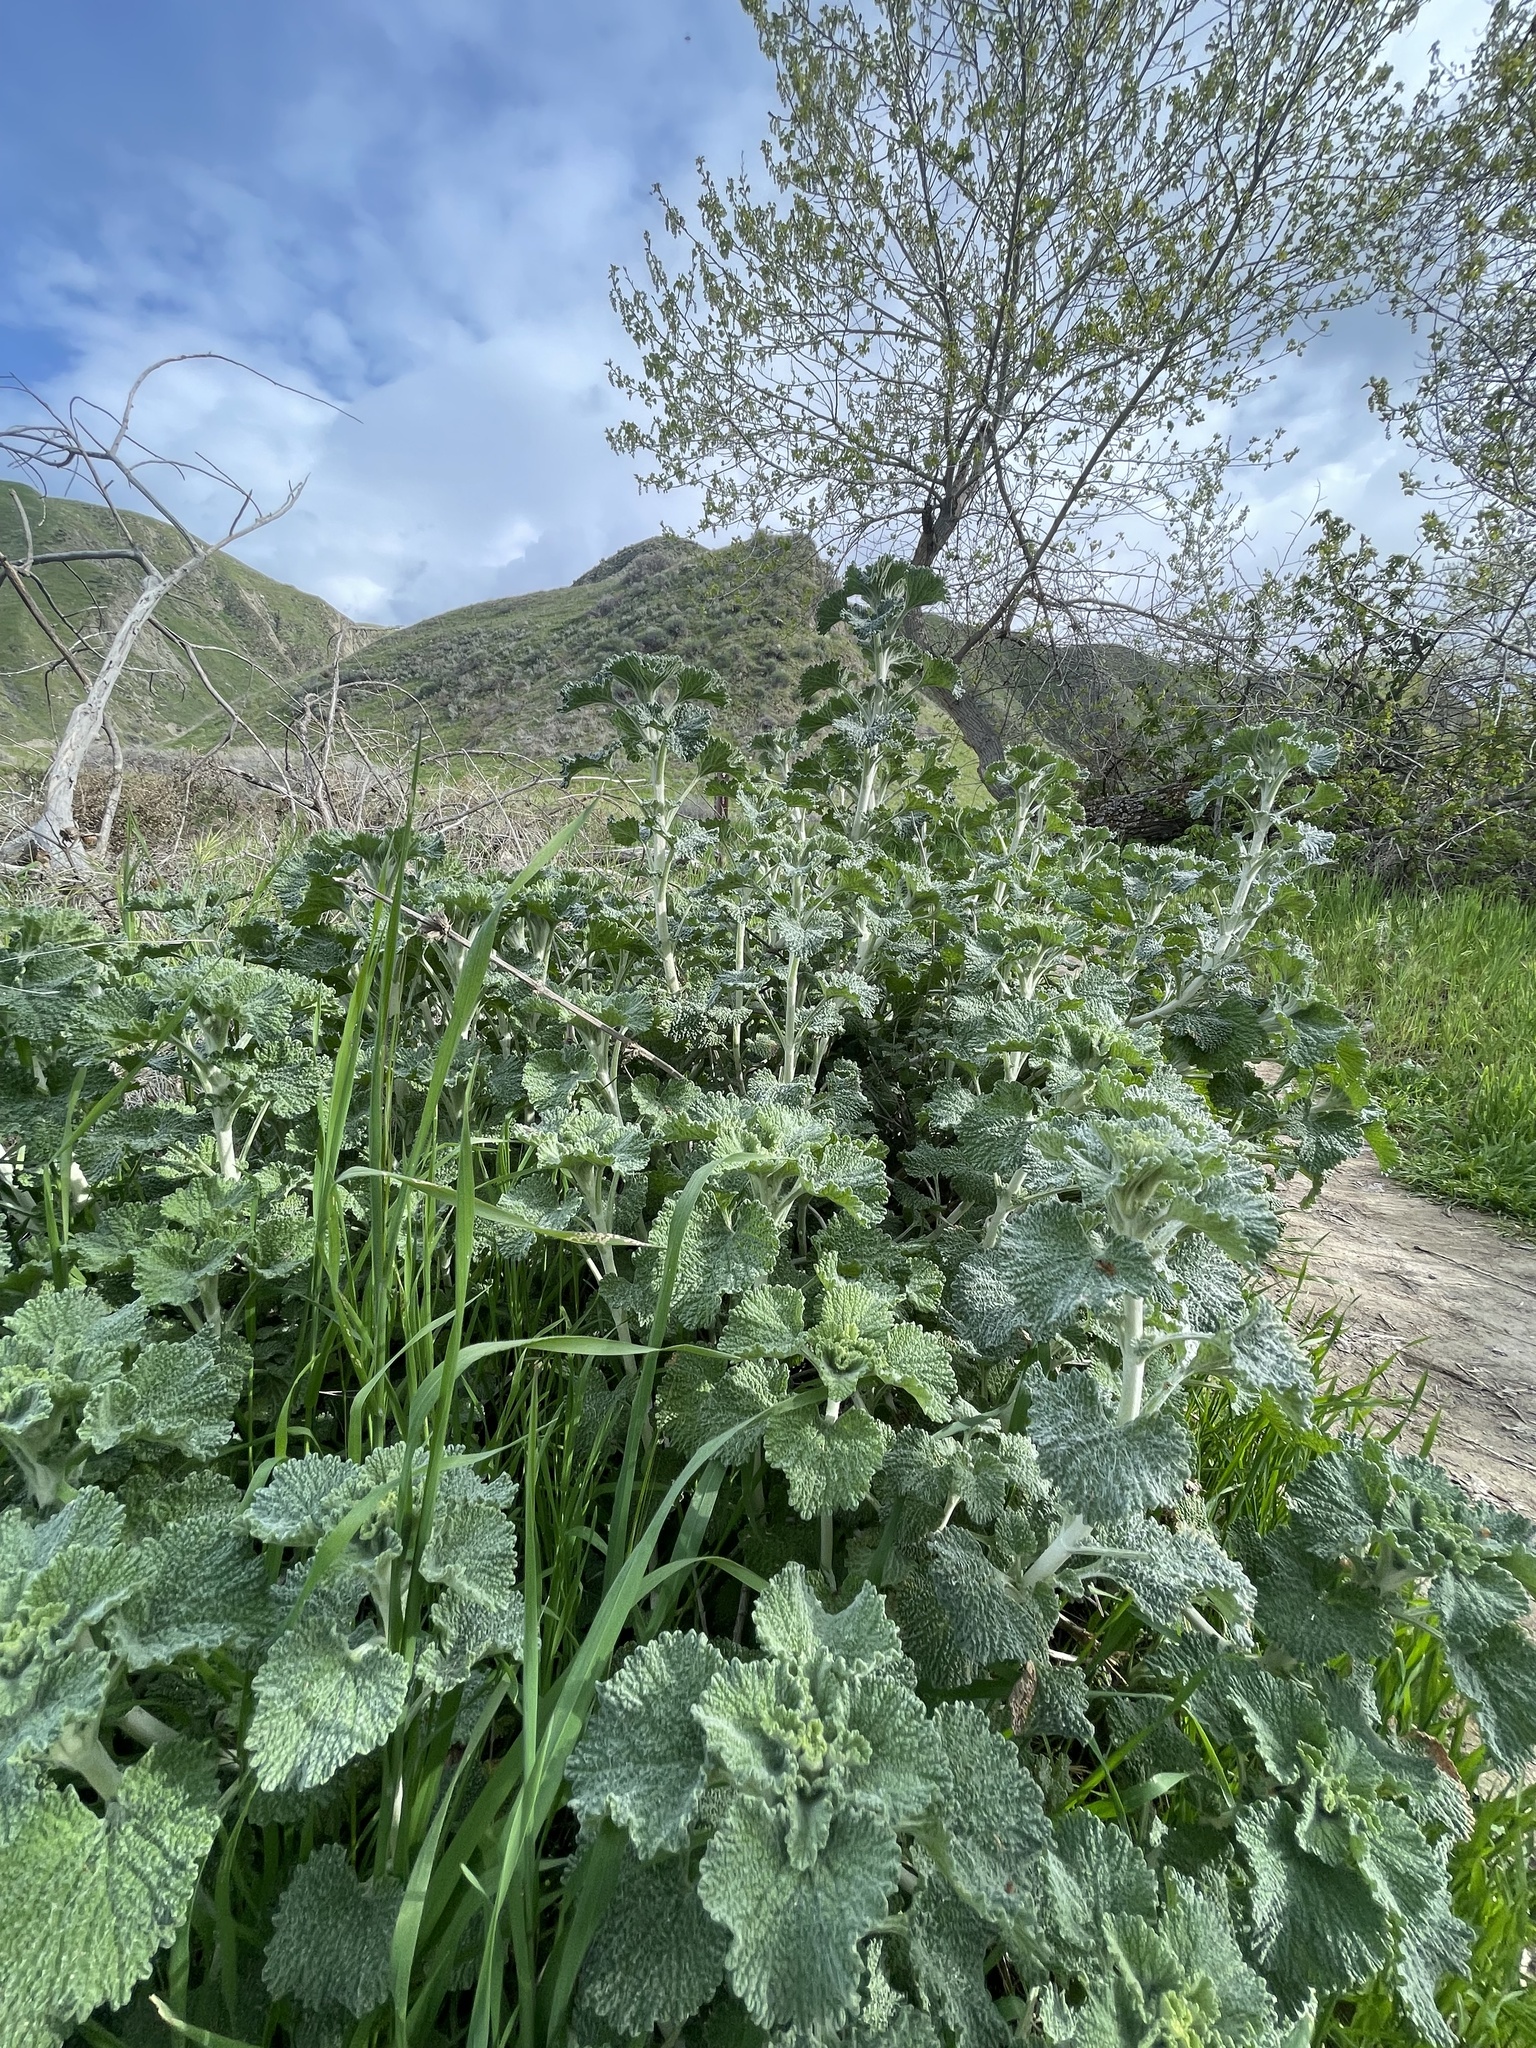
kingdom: Plantae
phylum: Tracheophyta
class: Magnoliopsida
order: Lamiales
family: Lamiaceae
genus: Marrubium
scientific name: Marrubium vulgare
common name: Horehound
